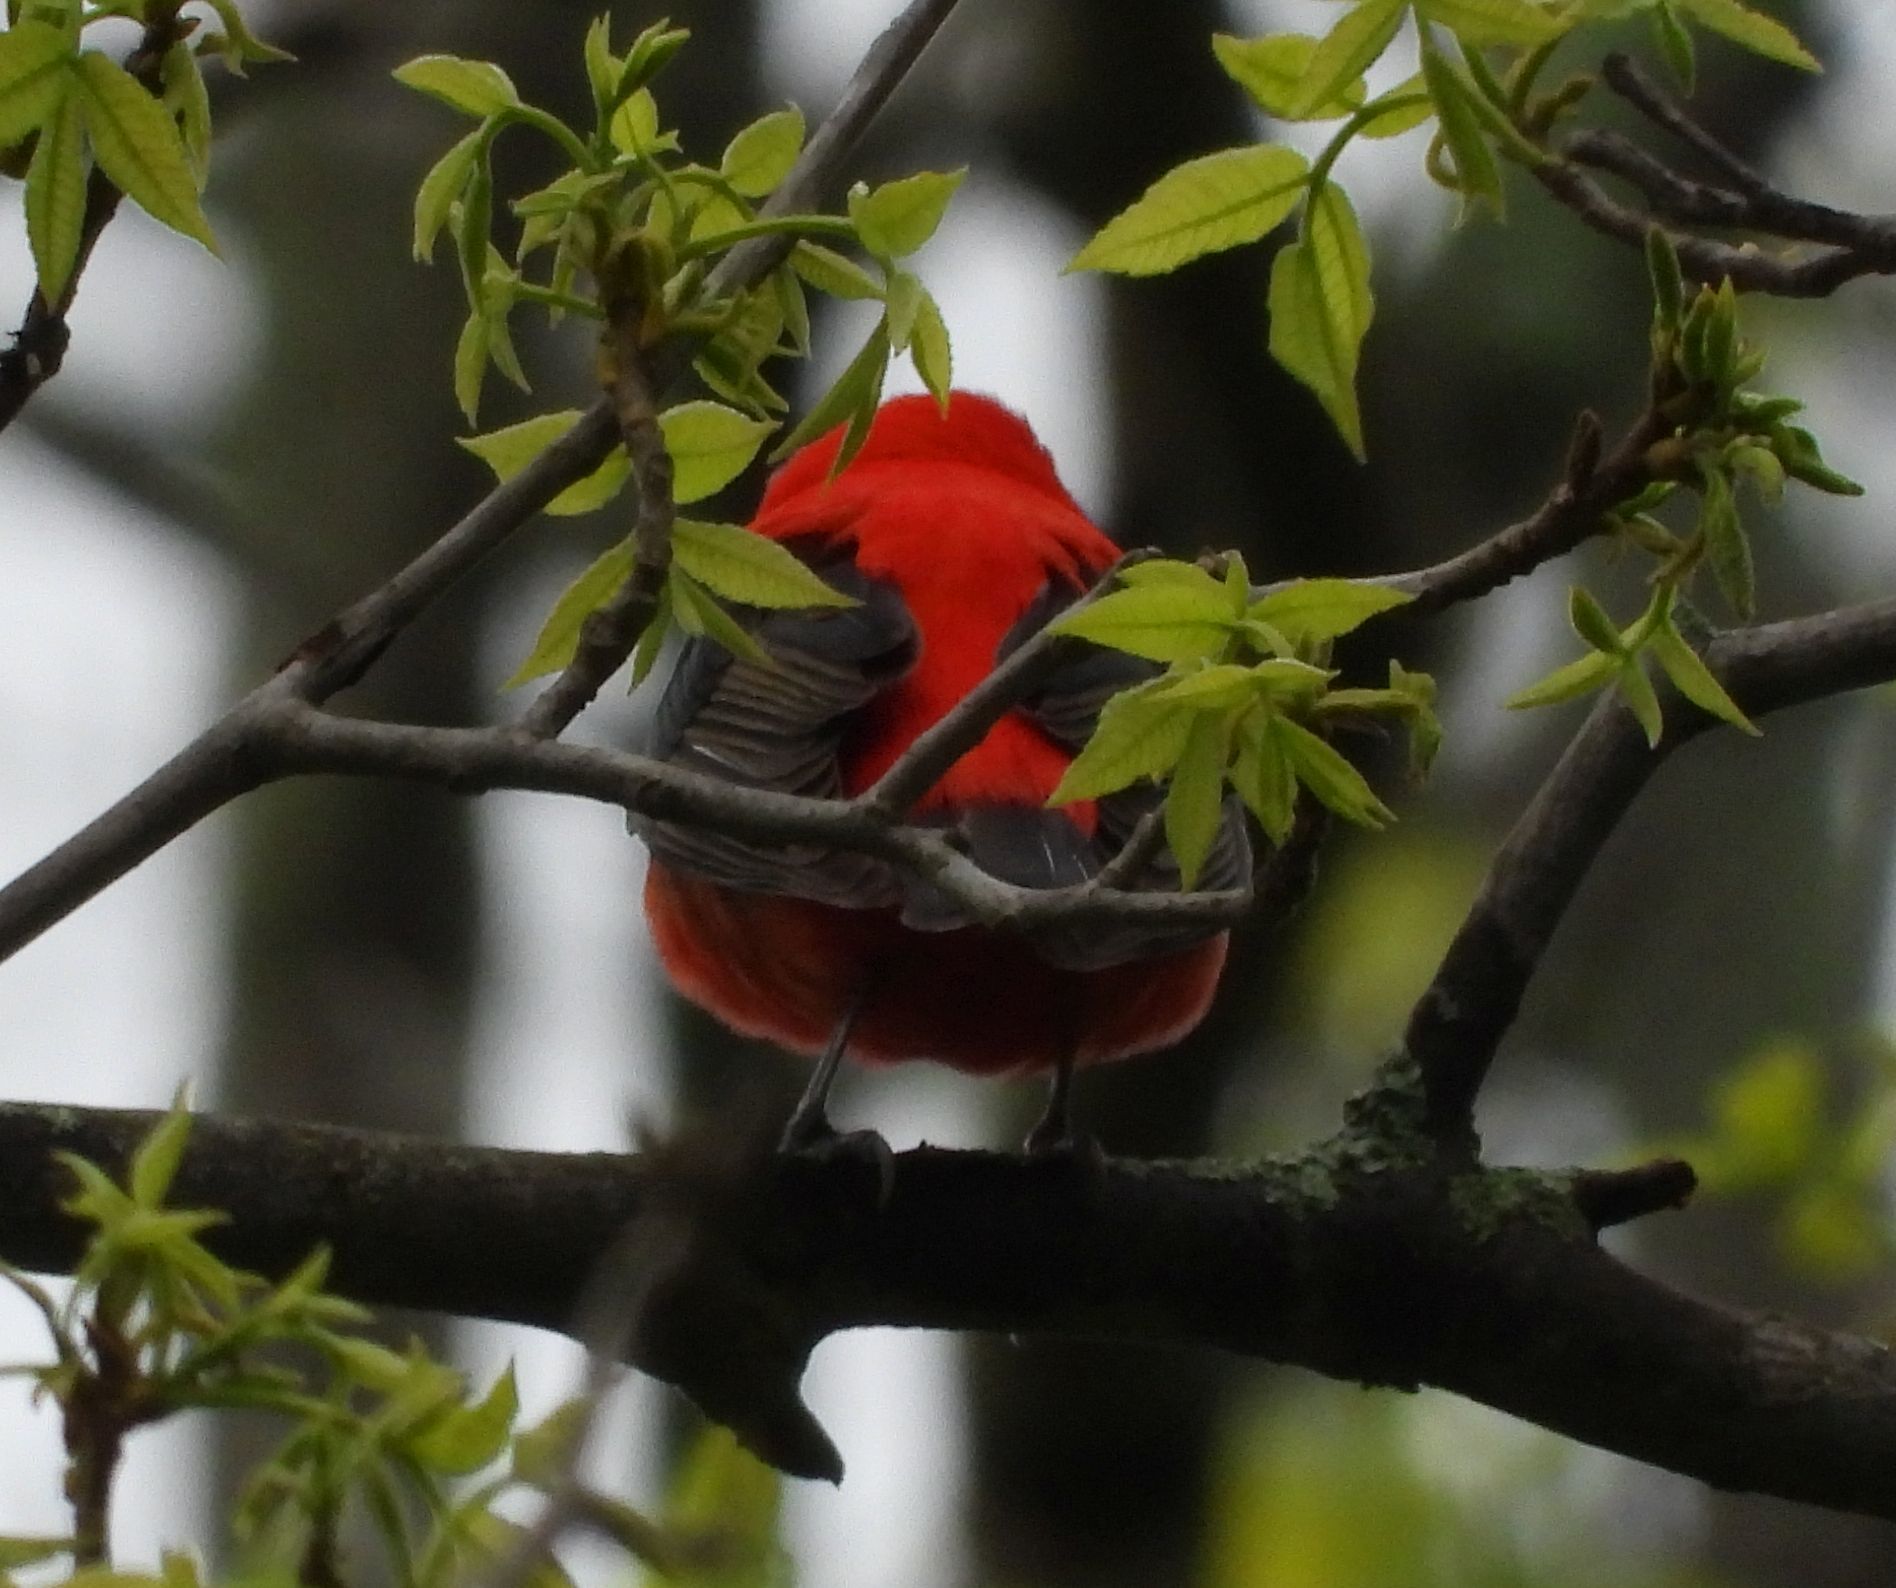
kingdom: Animalia
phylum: Chordata
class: Aves
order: Passeriformes
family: Cardinalidae
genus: Piranga
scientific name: Piranga olivacea
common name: Scarlet tanager
